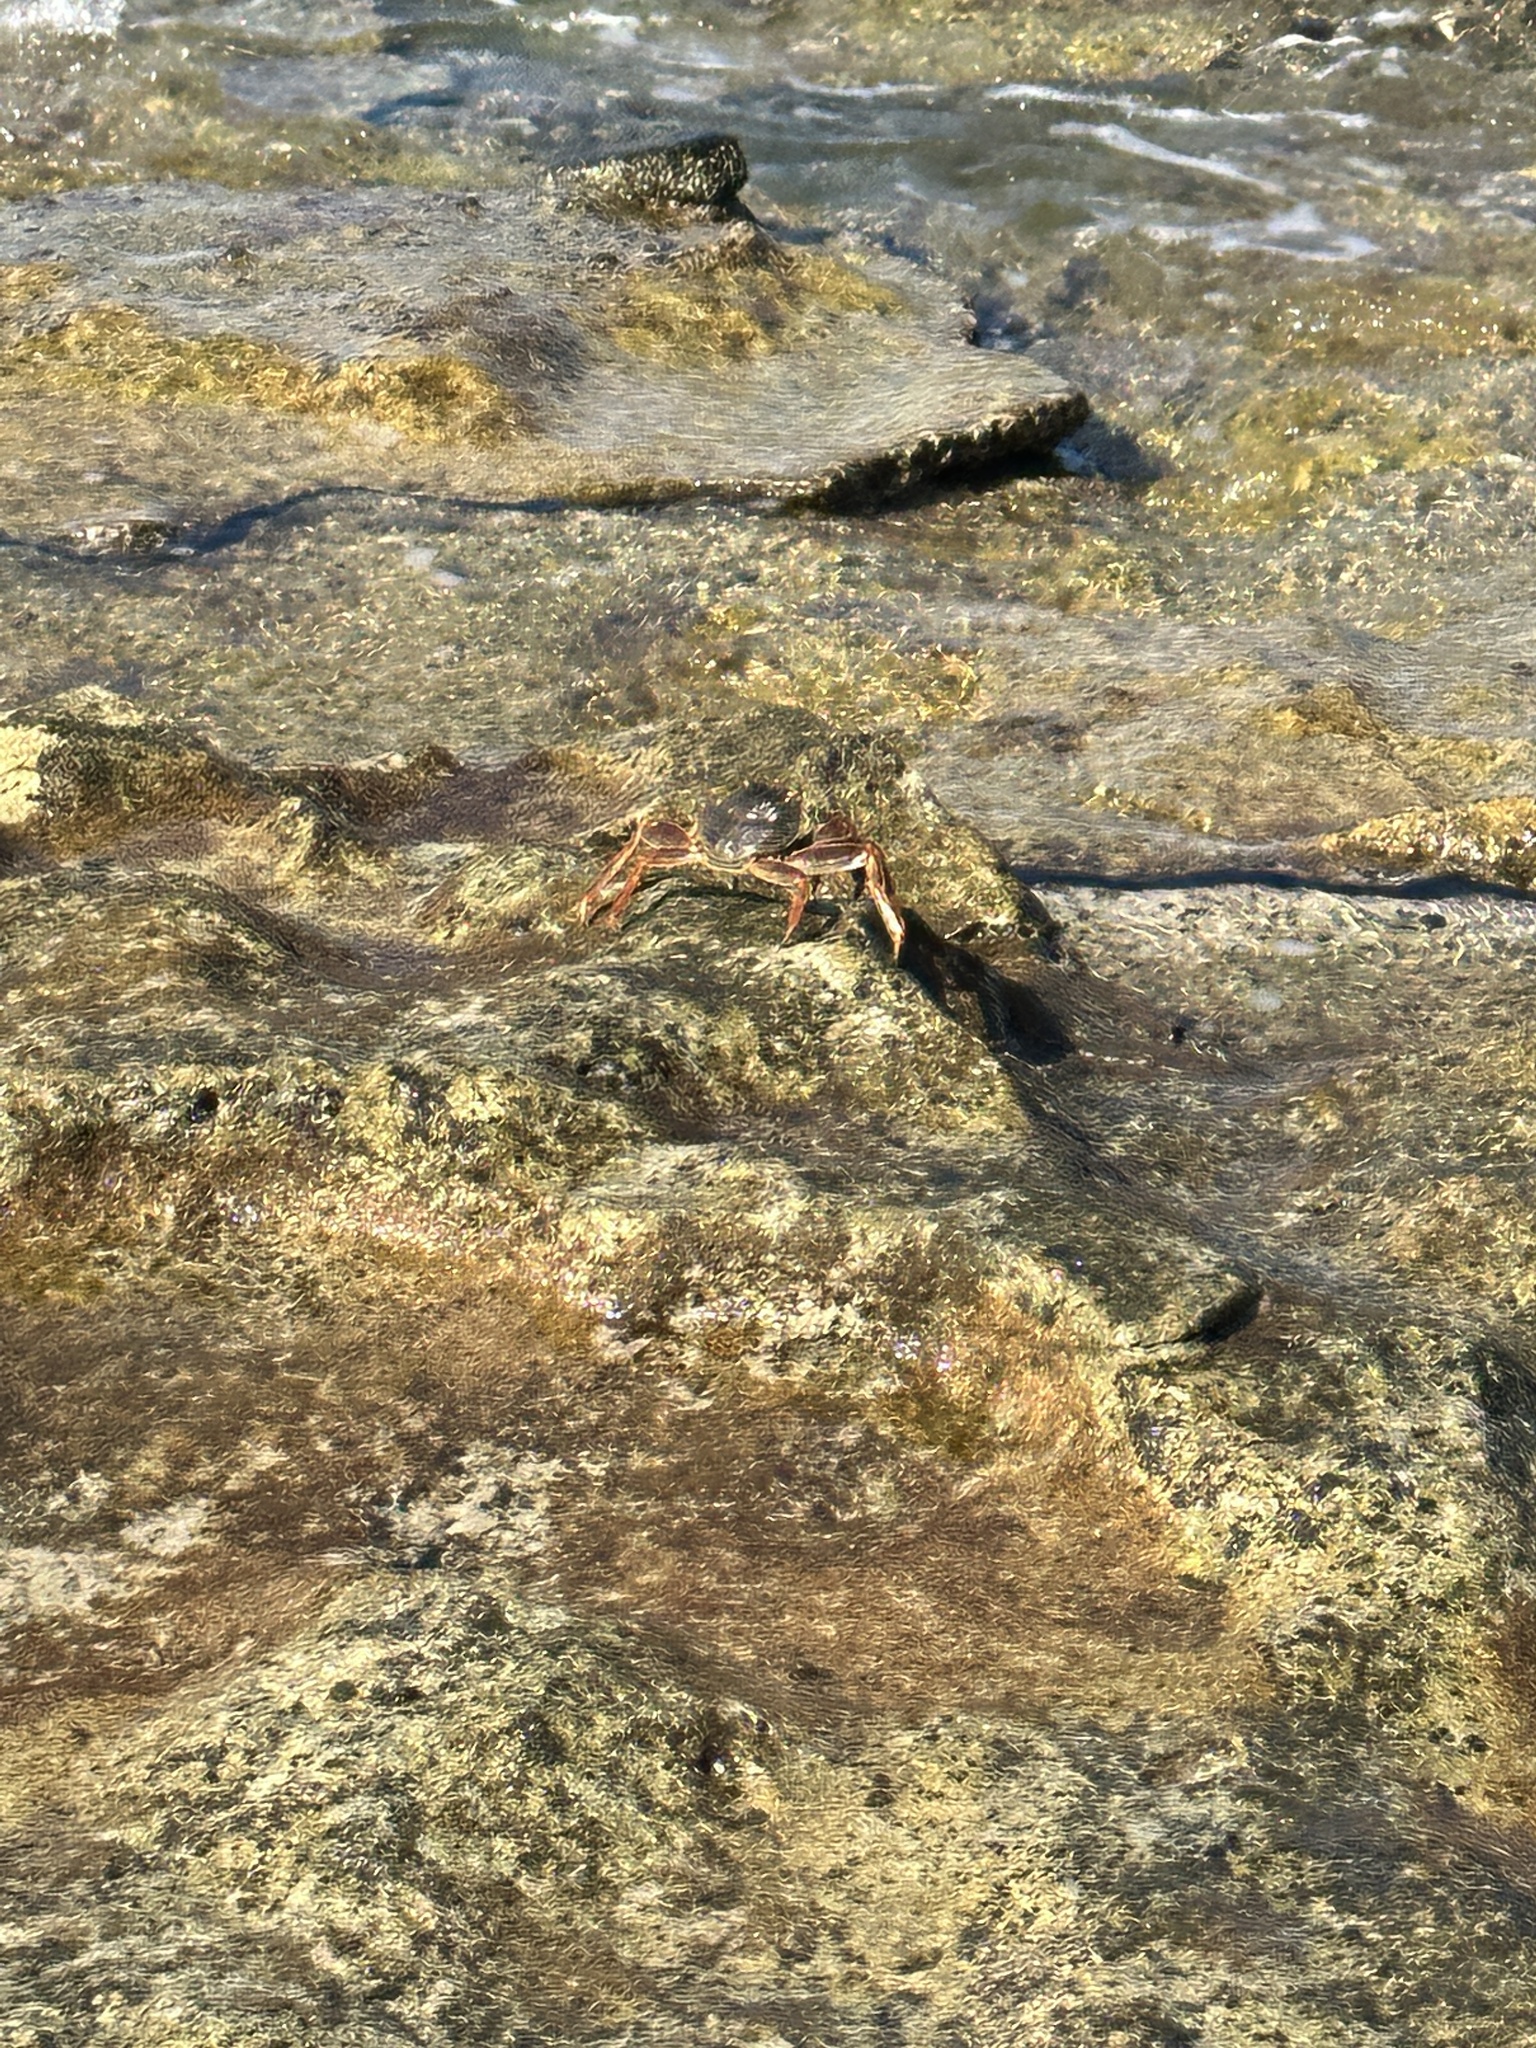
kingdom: Animalia
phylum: Arthropoda
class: Malacostraca
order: Decapoda
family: Grapsidae
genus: Grapsus
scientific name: Grapsus tenuicrustatus
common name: Natal lightfoot crab
